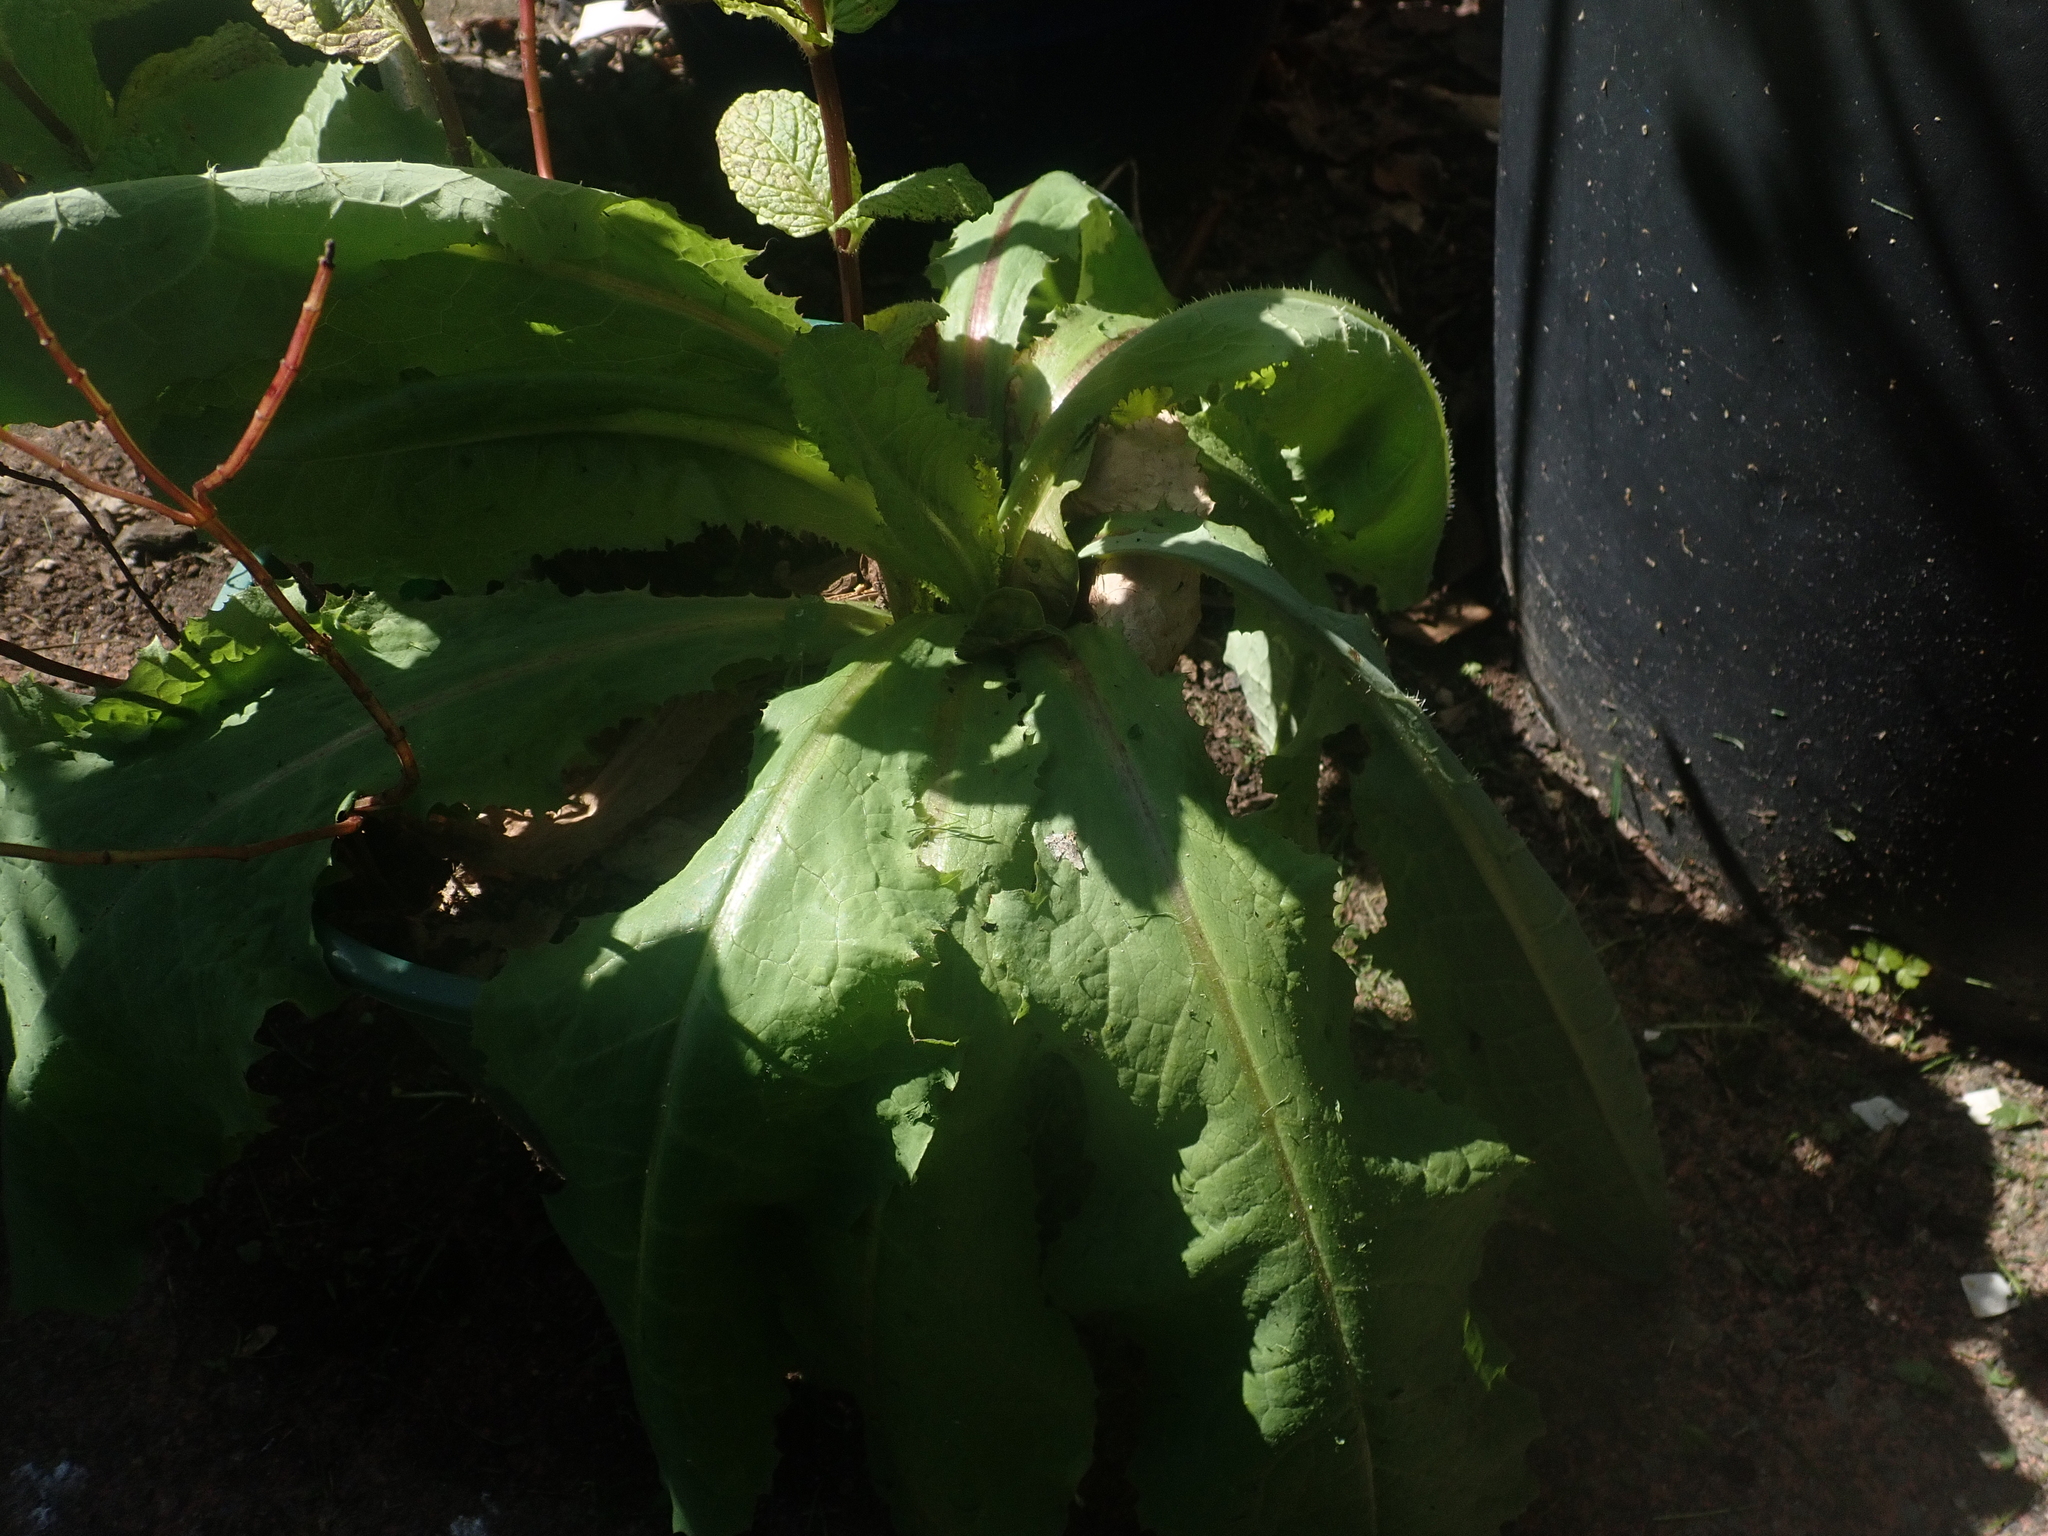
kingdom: Plantae
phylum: Tracheophyta
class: Magnoliopsida
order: Asterales
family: Asteraceae
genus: Lactuca
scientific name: Lactuca virosa
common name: Great lettuce
